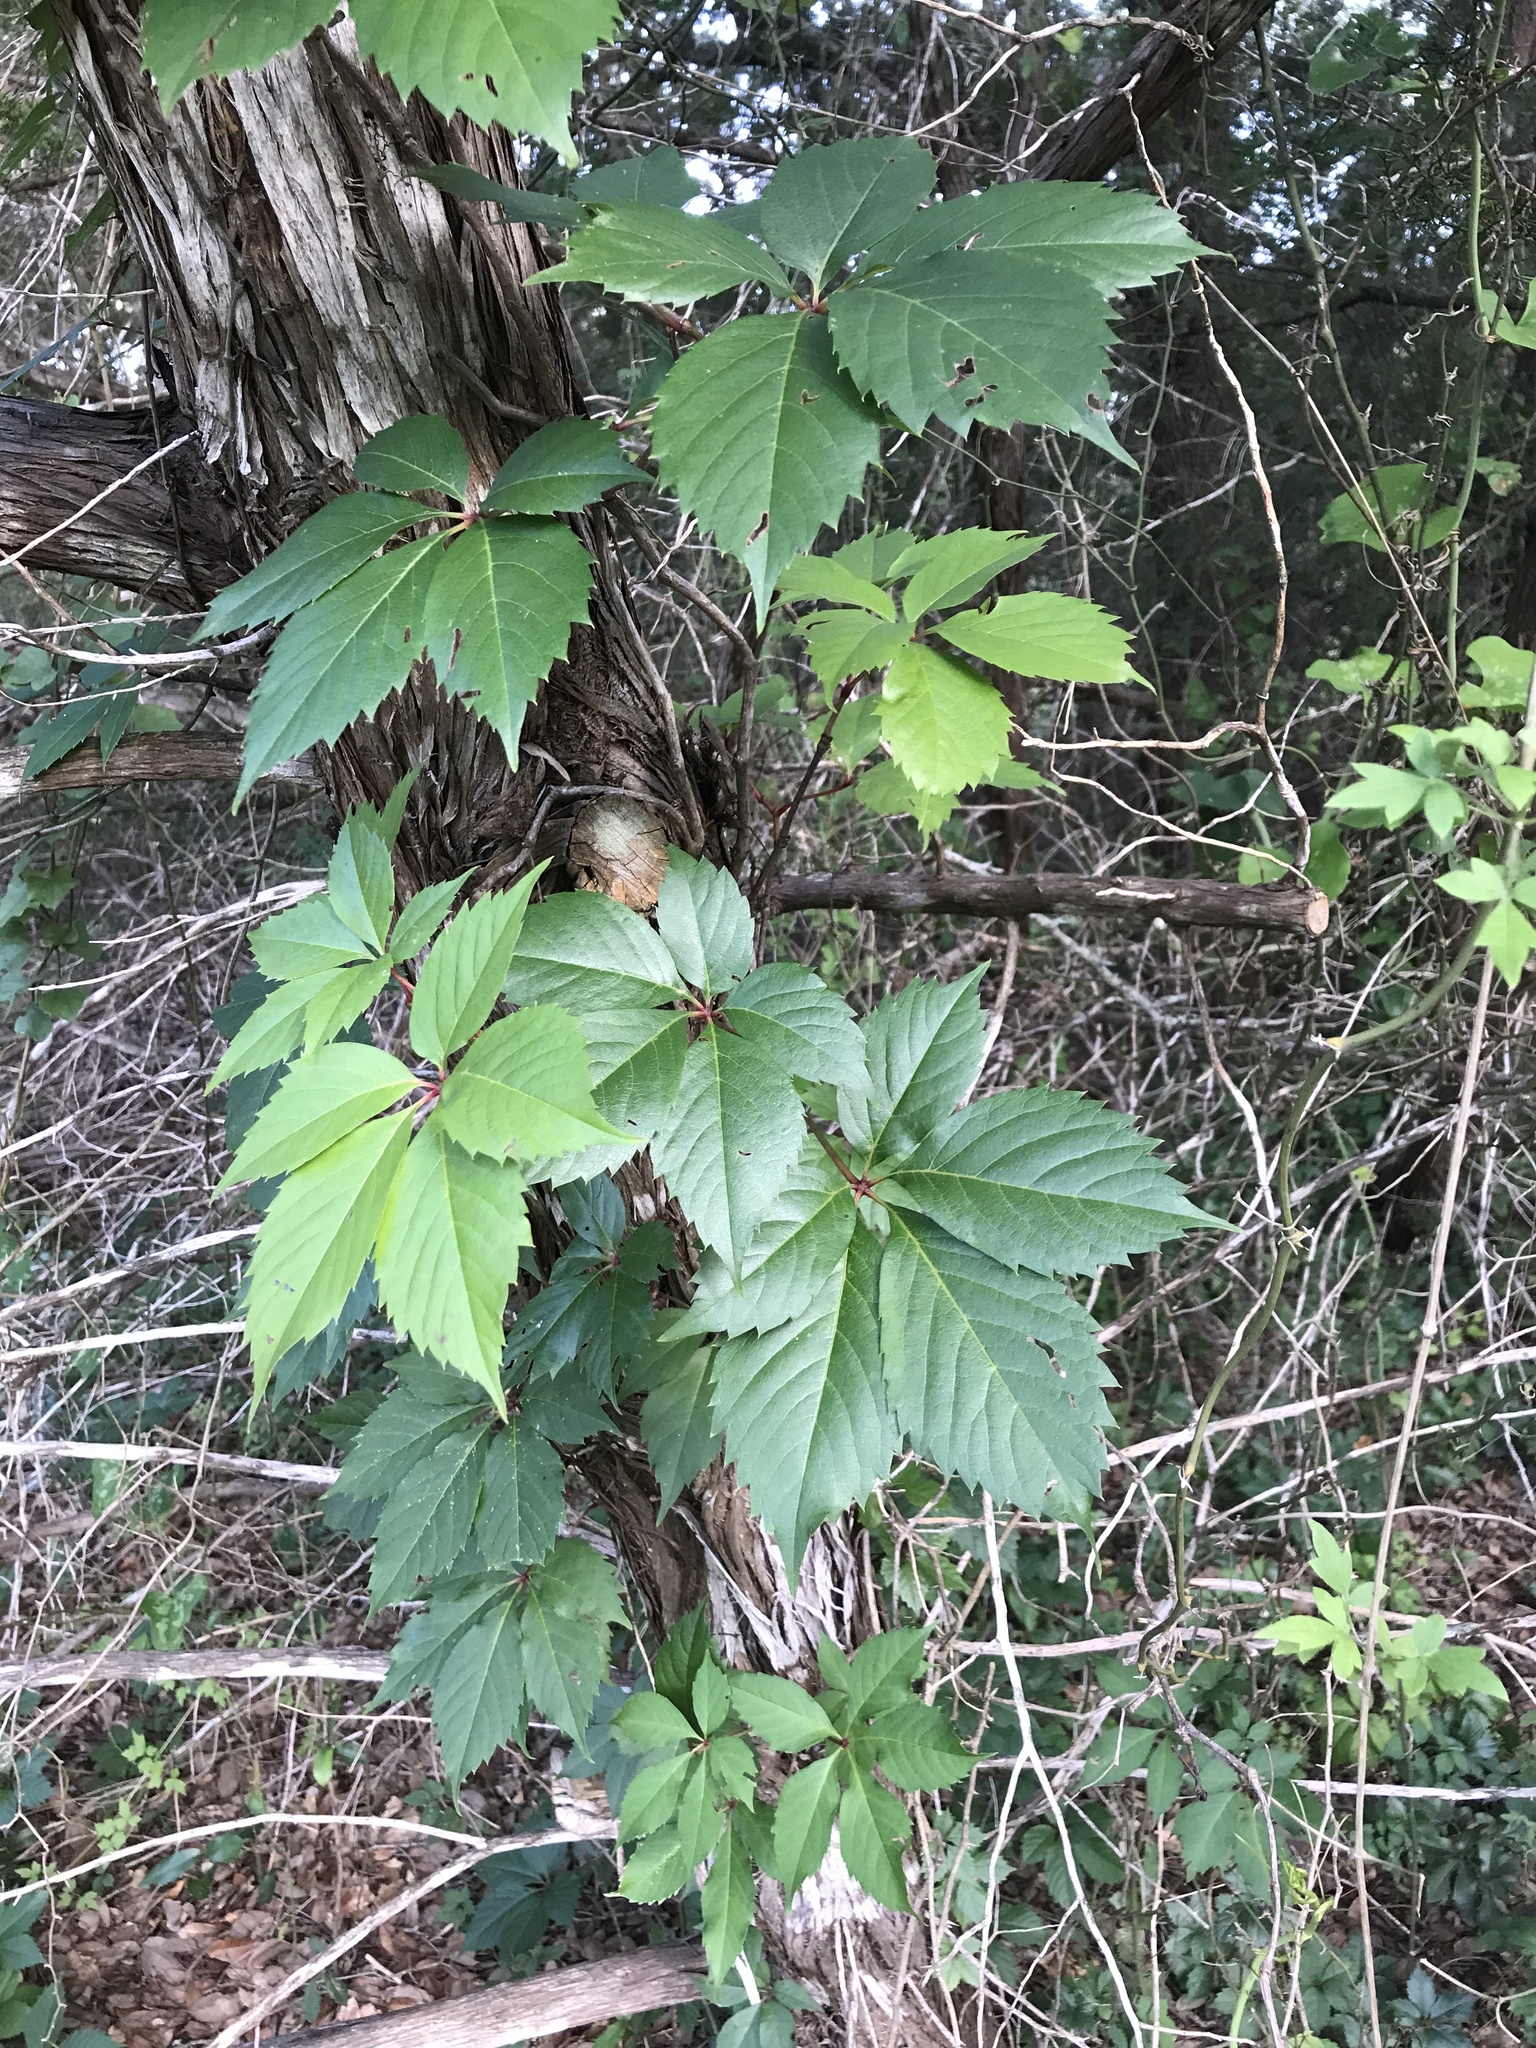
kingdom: Plantae
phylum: Tracheophyta
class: Magnoliopsida
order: Vitales
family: Vitaceae
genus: Parthenocissus
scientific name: Parthenocissus quinquefolia
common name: Virginia-creeper
